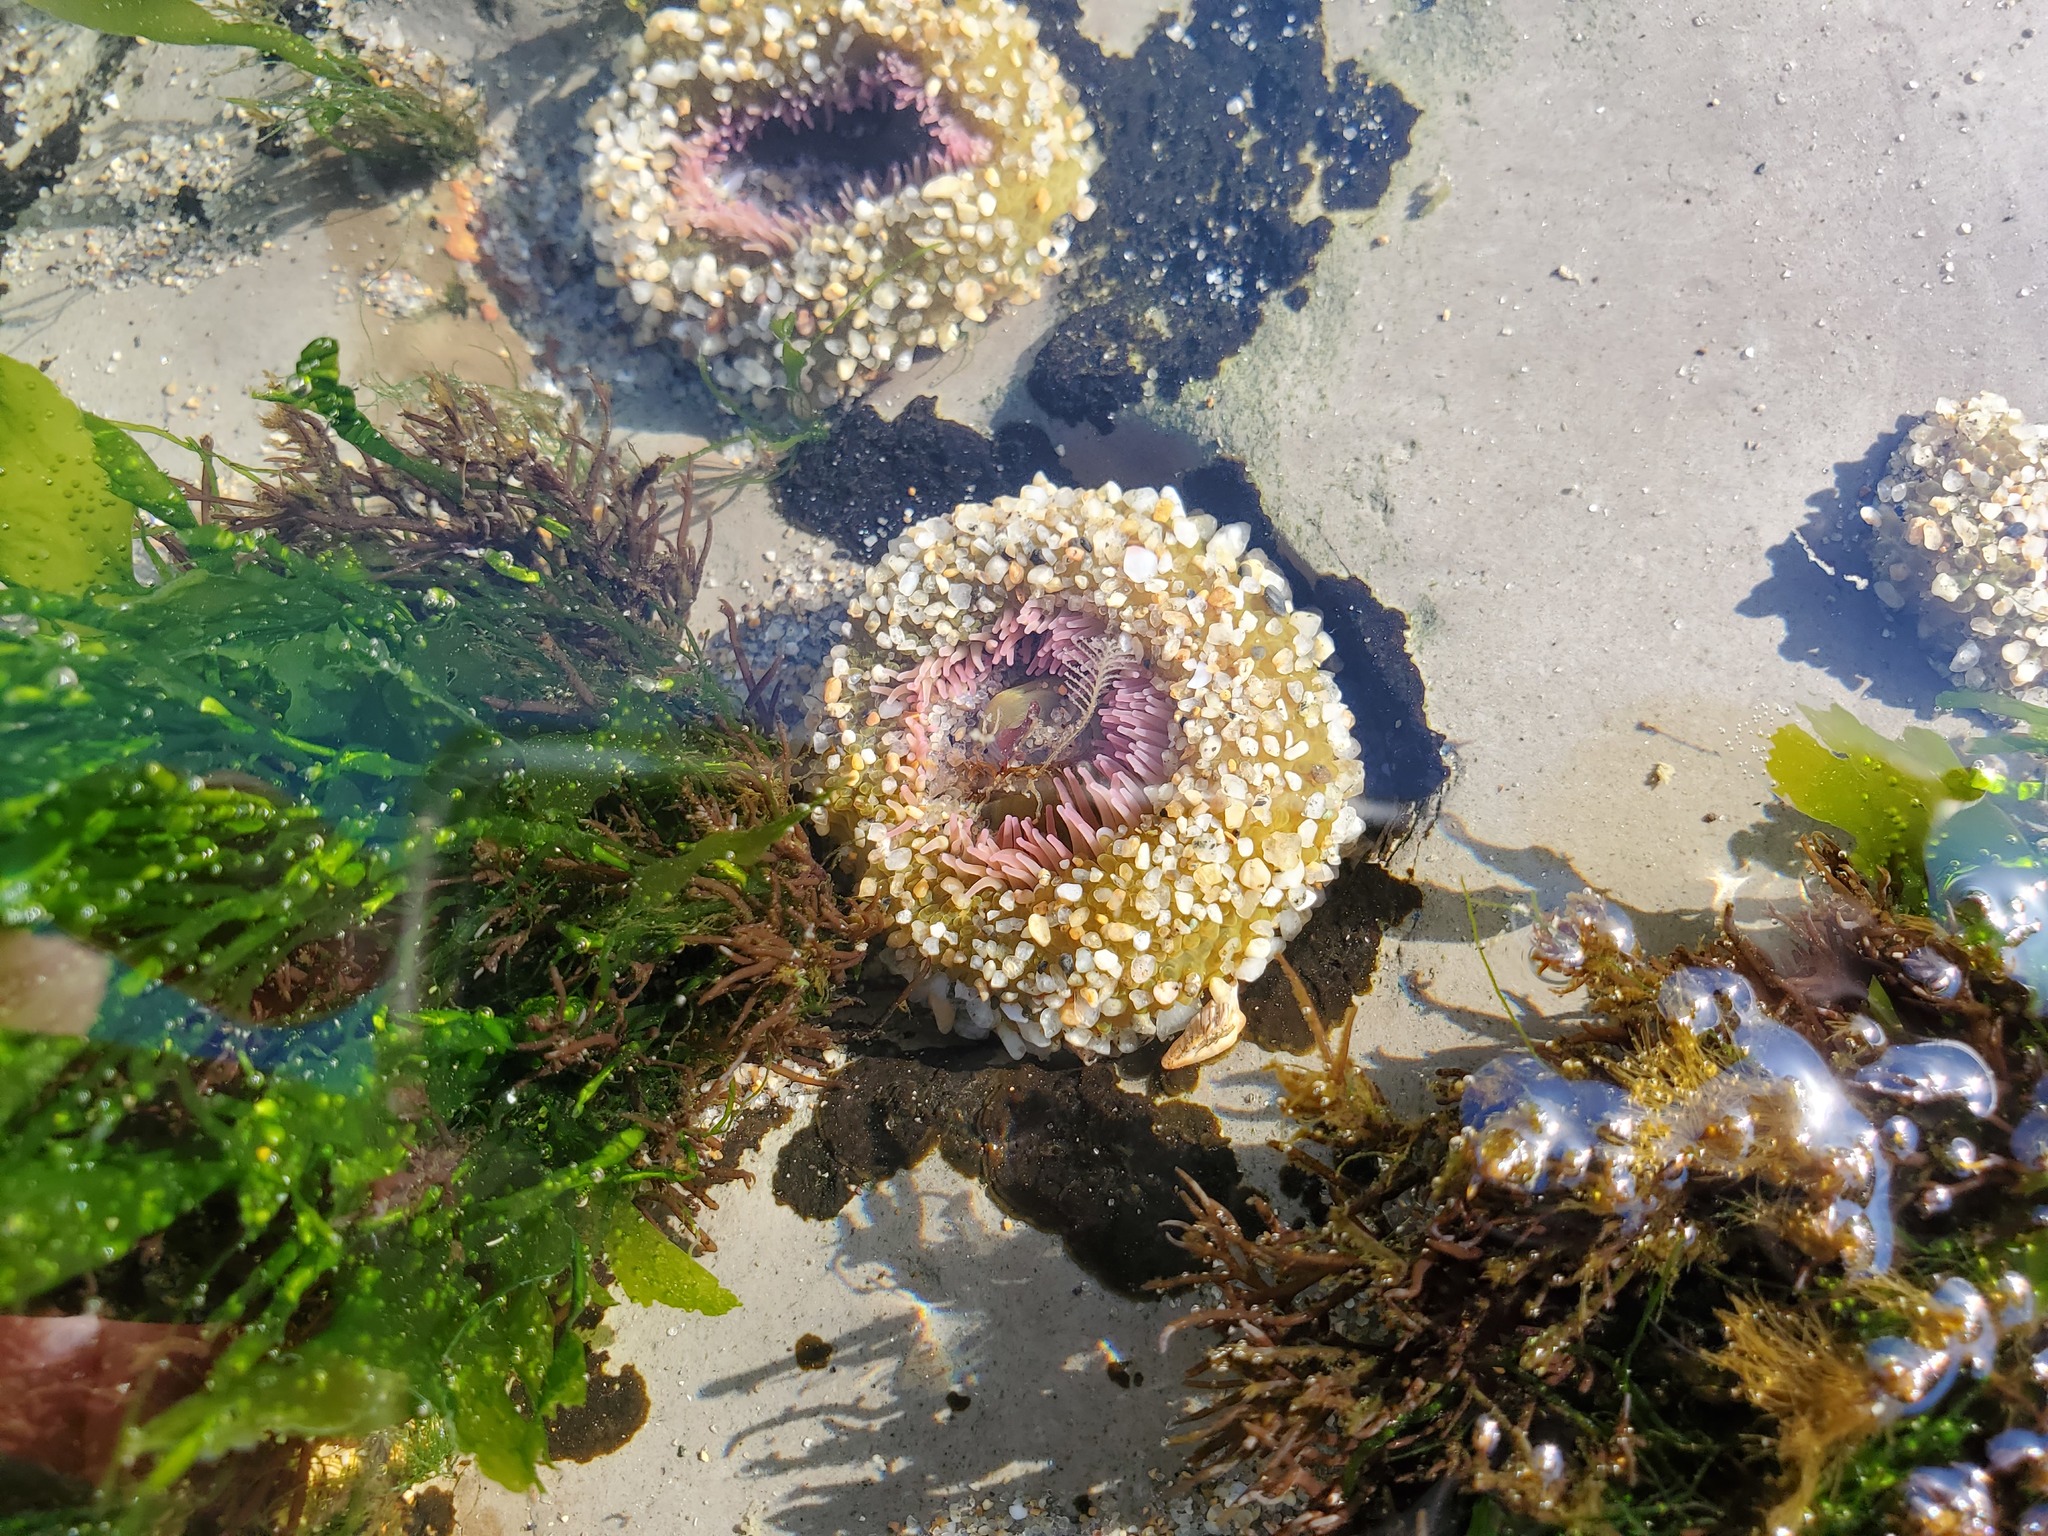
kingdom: Animalia
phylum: Cnidaria
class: Anthozoa
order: Actiniaria
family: Actiniidae
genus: Anthopleura
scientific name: Anthopleura sola
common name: Sun anemone
